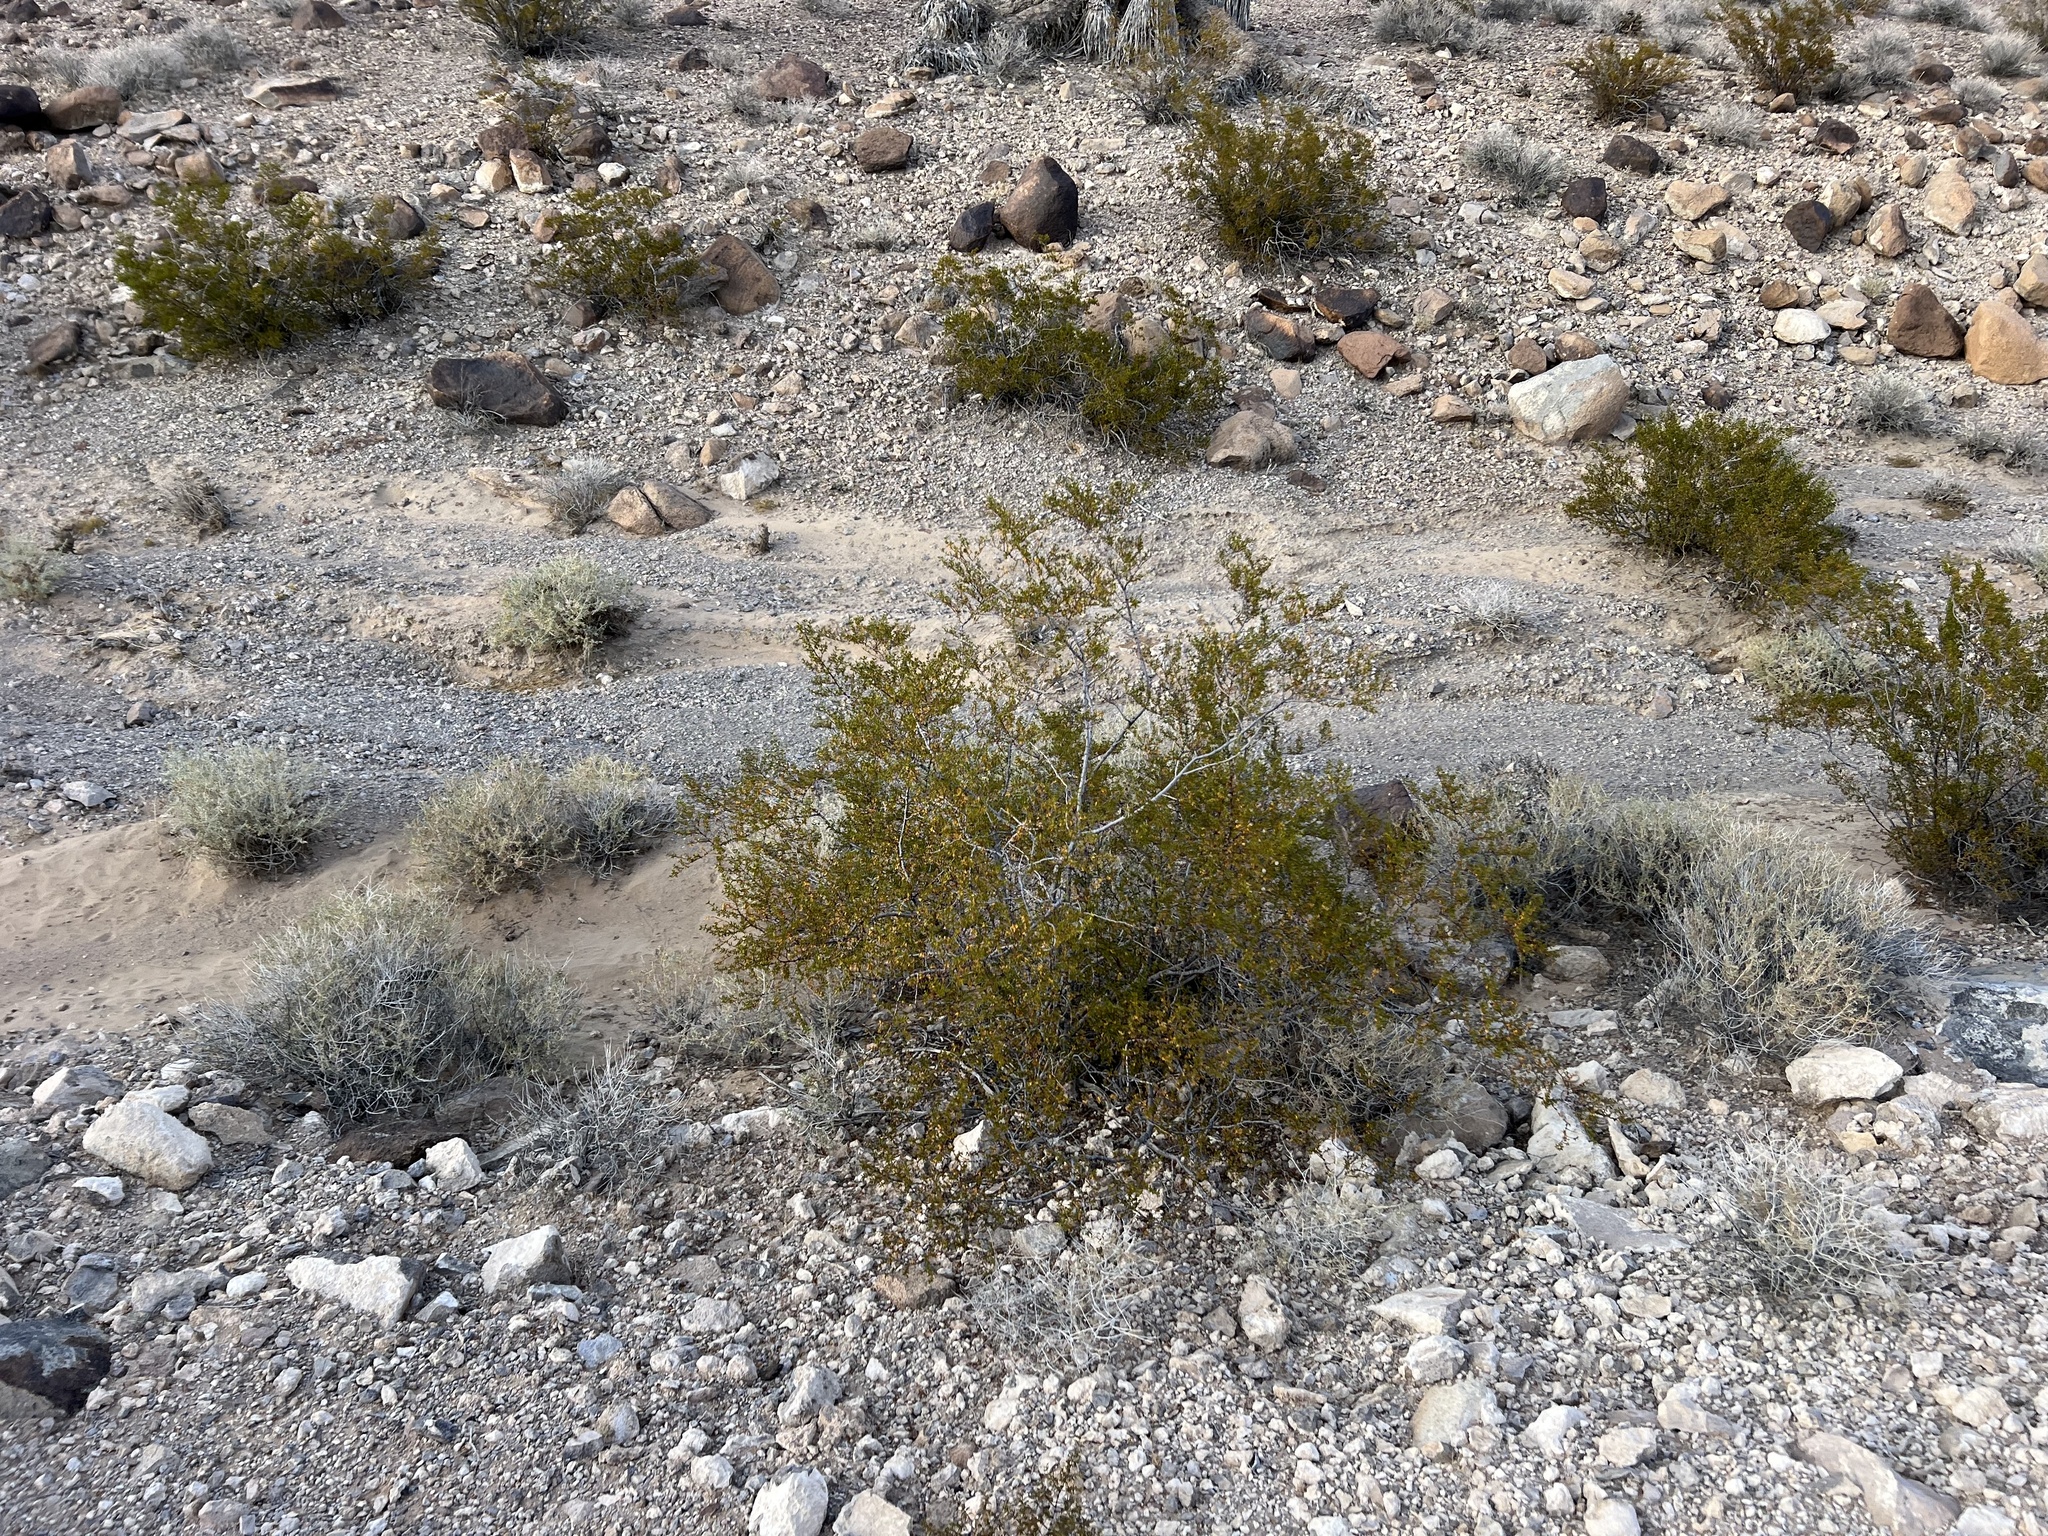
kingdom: Plantae
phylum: Tracheophyta
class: Magnoliopsida
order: Zygophyllales
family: Zygophyllaceae
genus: Larrea
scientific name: Larrea tridentata
